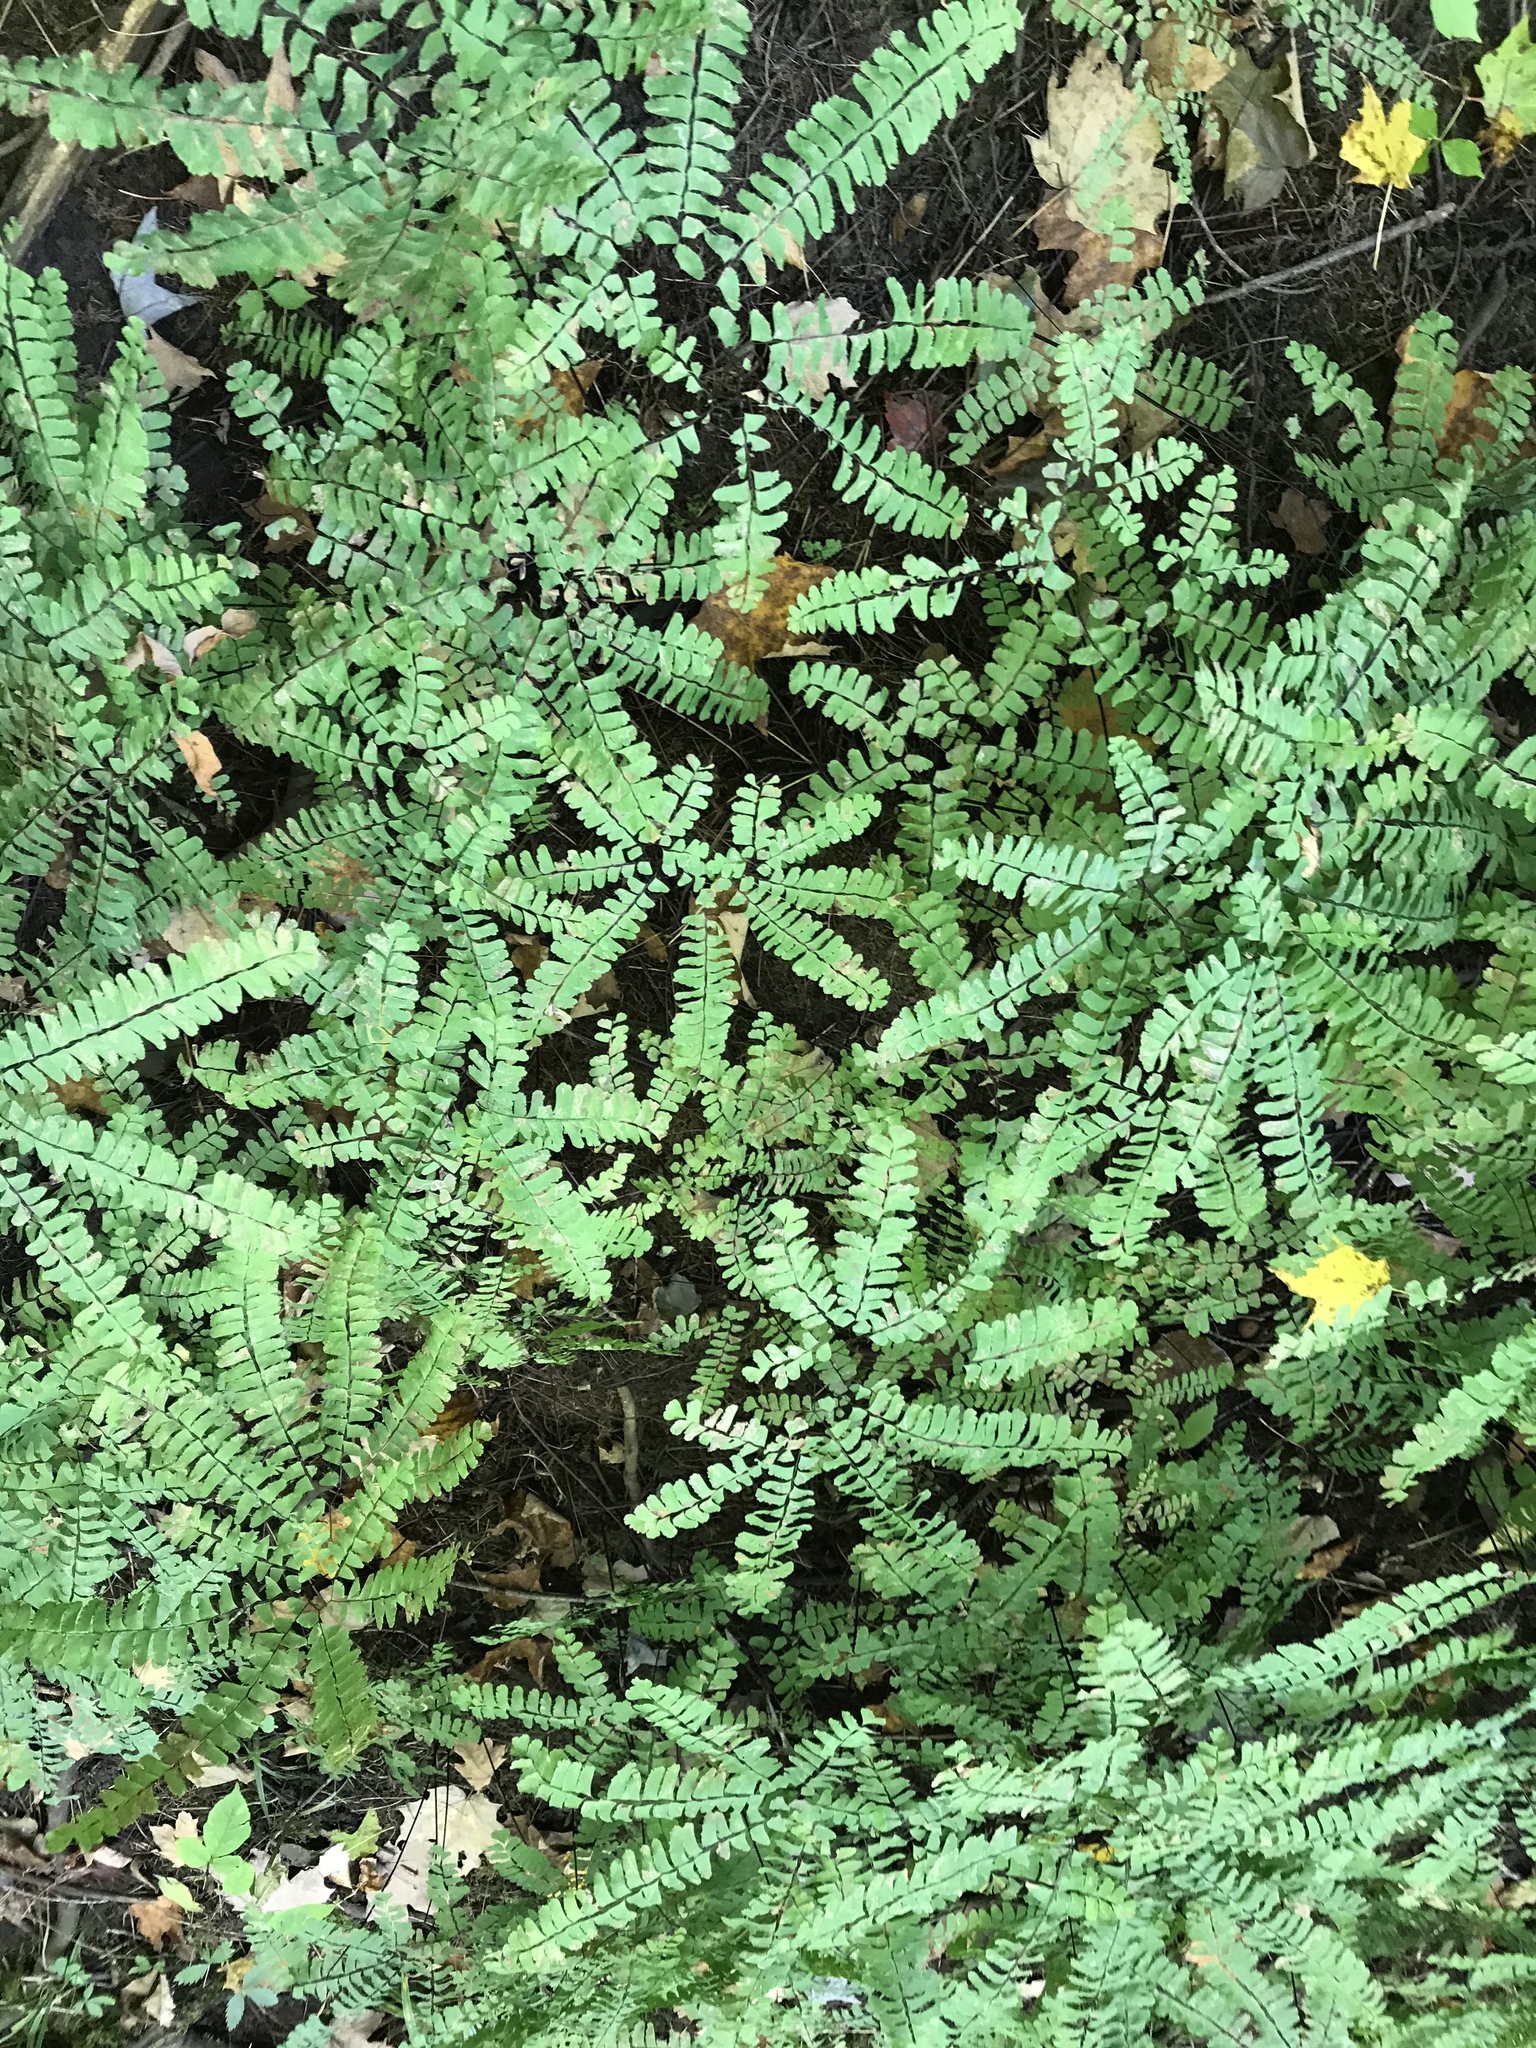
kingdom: Plantae
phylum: Tracheophyta
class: Polypodiopsida
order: Polypodiales
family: Pteridaceae
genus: Adiantum
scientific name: Adiantum pedatum
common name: Five-finger fern
